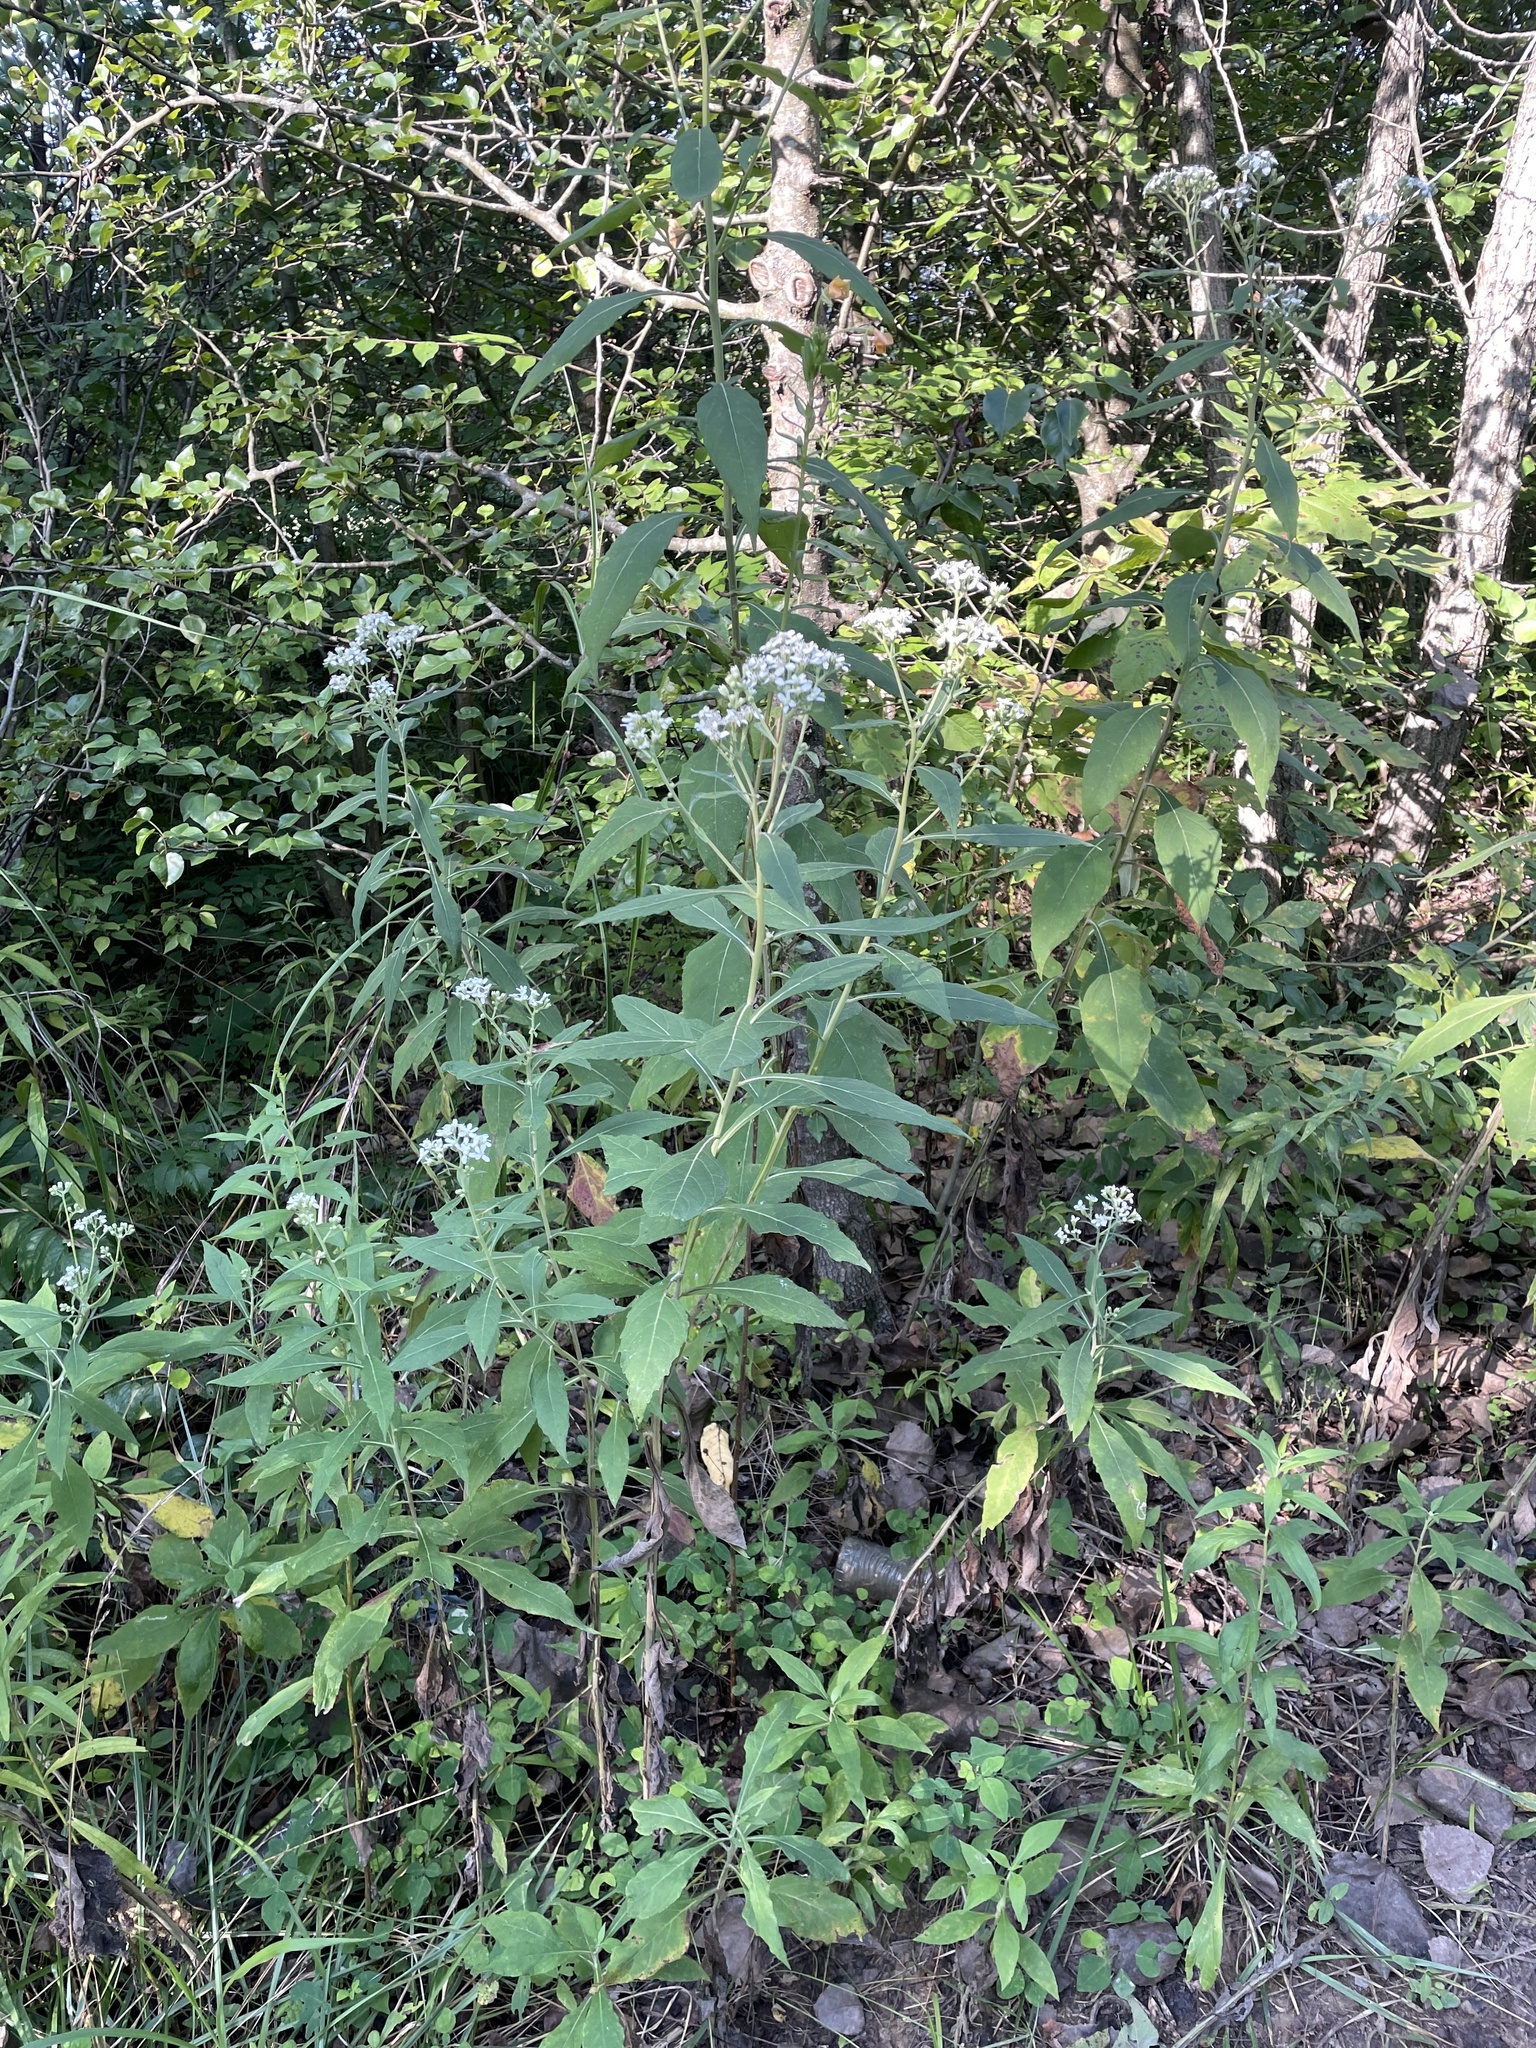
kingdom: Plantae
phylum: Tracheophyta
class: Magnoliopsida
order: Asterales
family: Asteraceae
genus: Verbesina
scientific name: Verbesina virginica
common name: Frostweed
